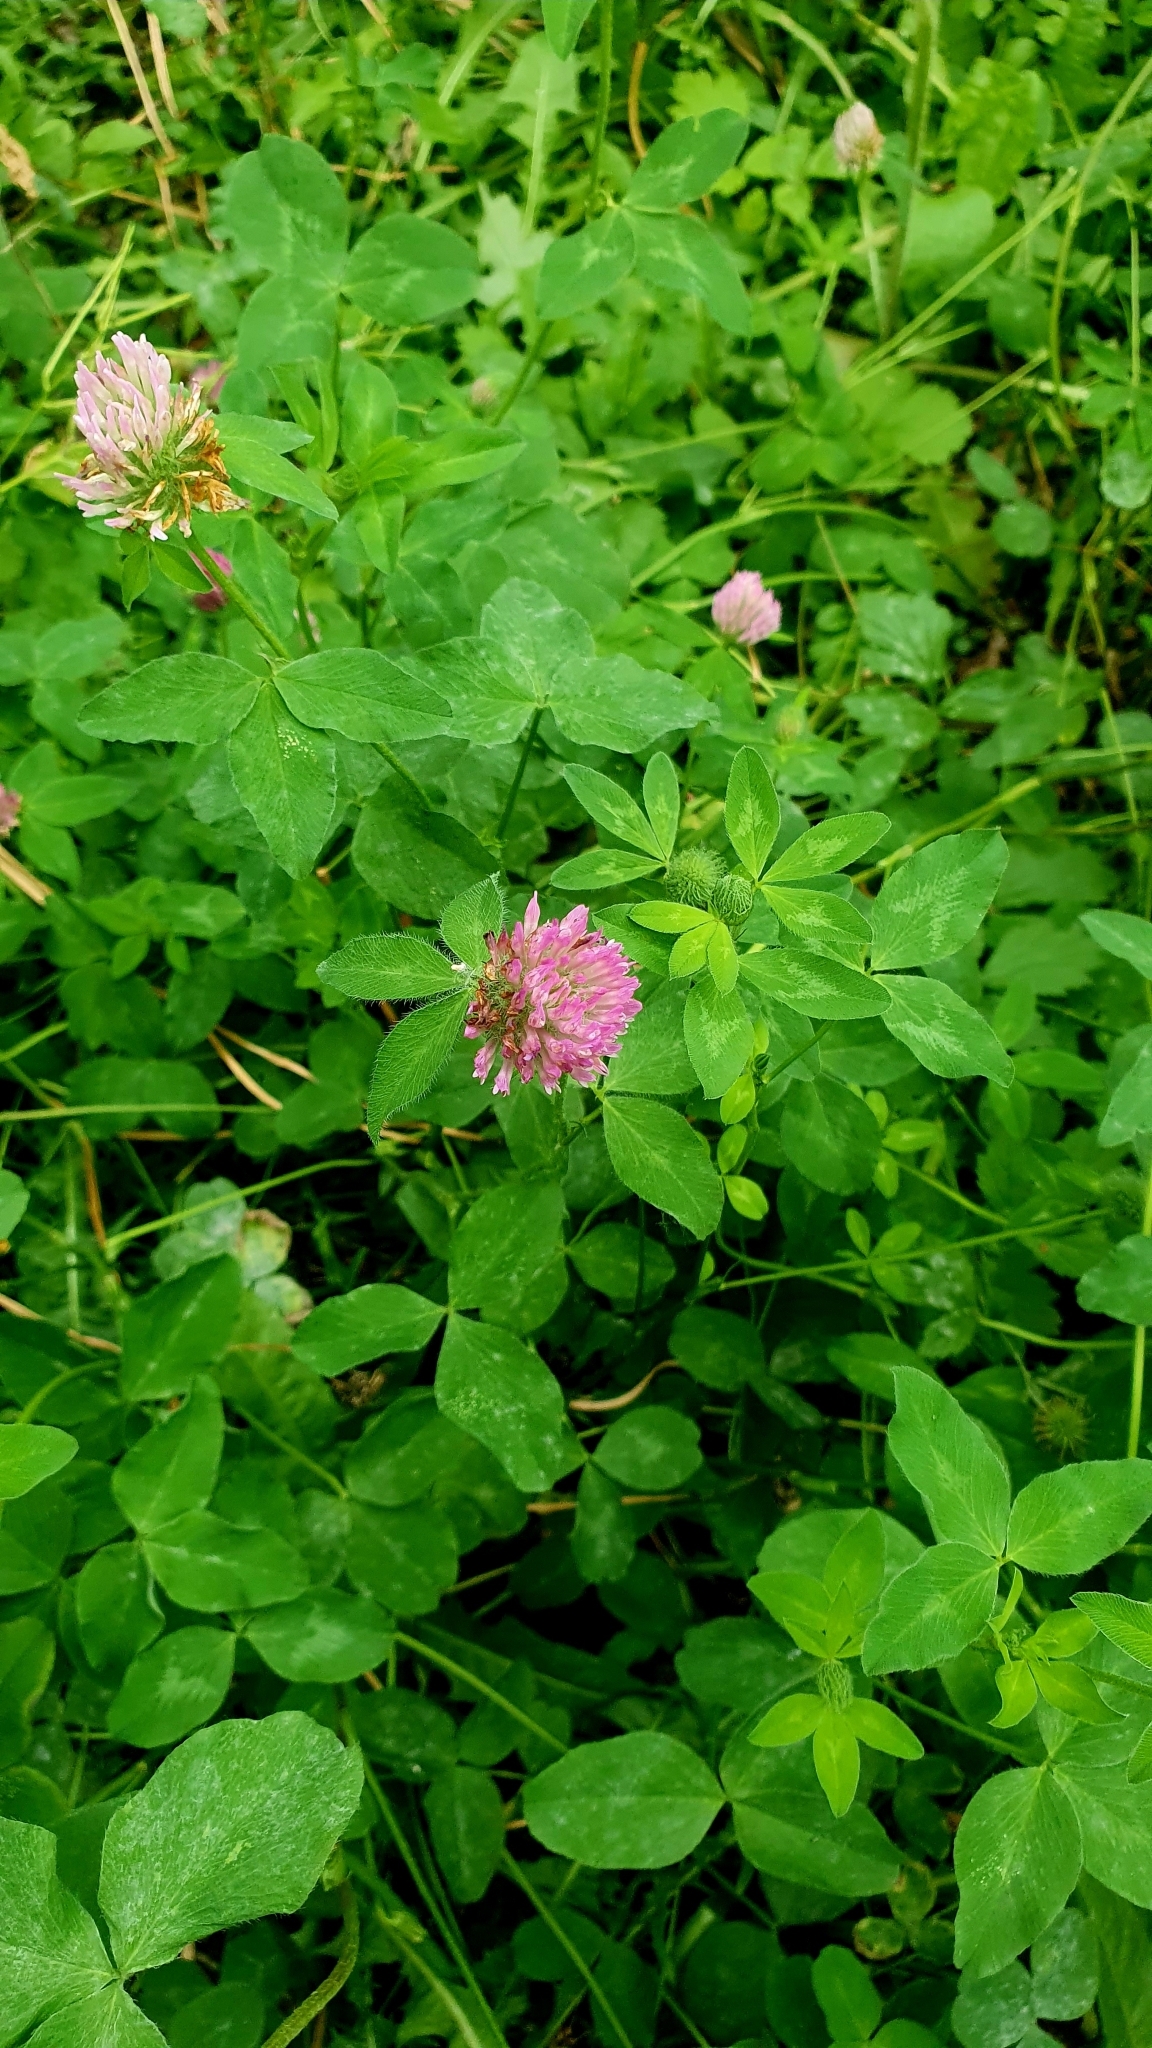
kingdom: Plantae
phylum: Tracheophyta
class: Magnoliopsida
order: Fabales
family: Fabaceae
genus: Trifolium
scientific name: Trifolium pratense
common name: Red clover
